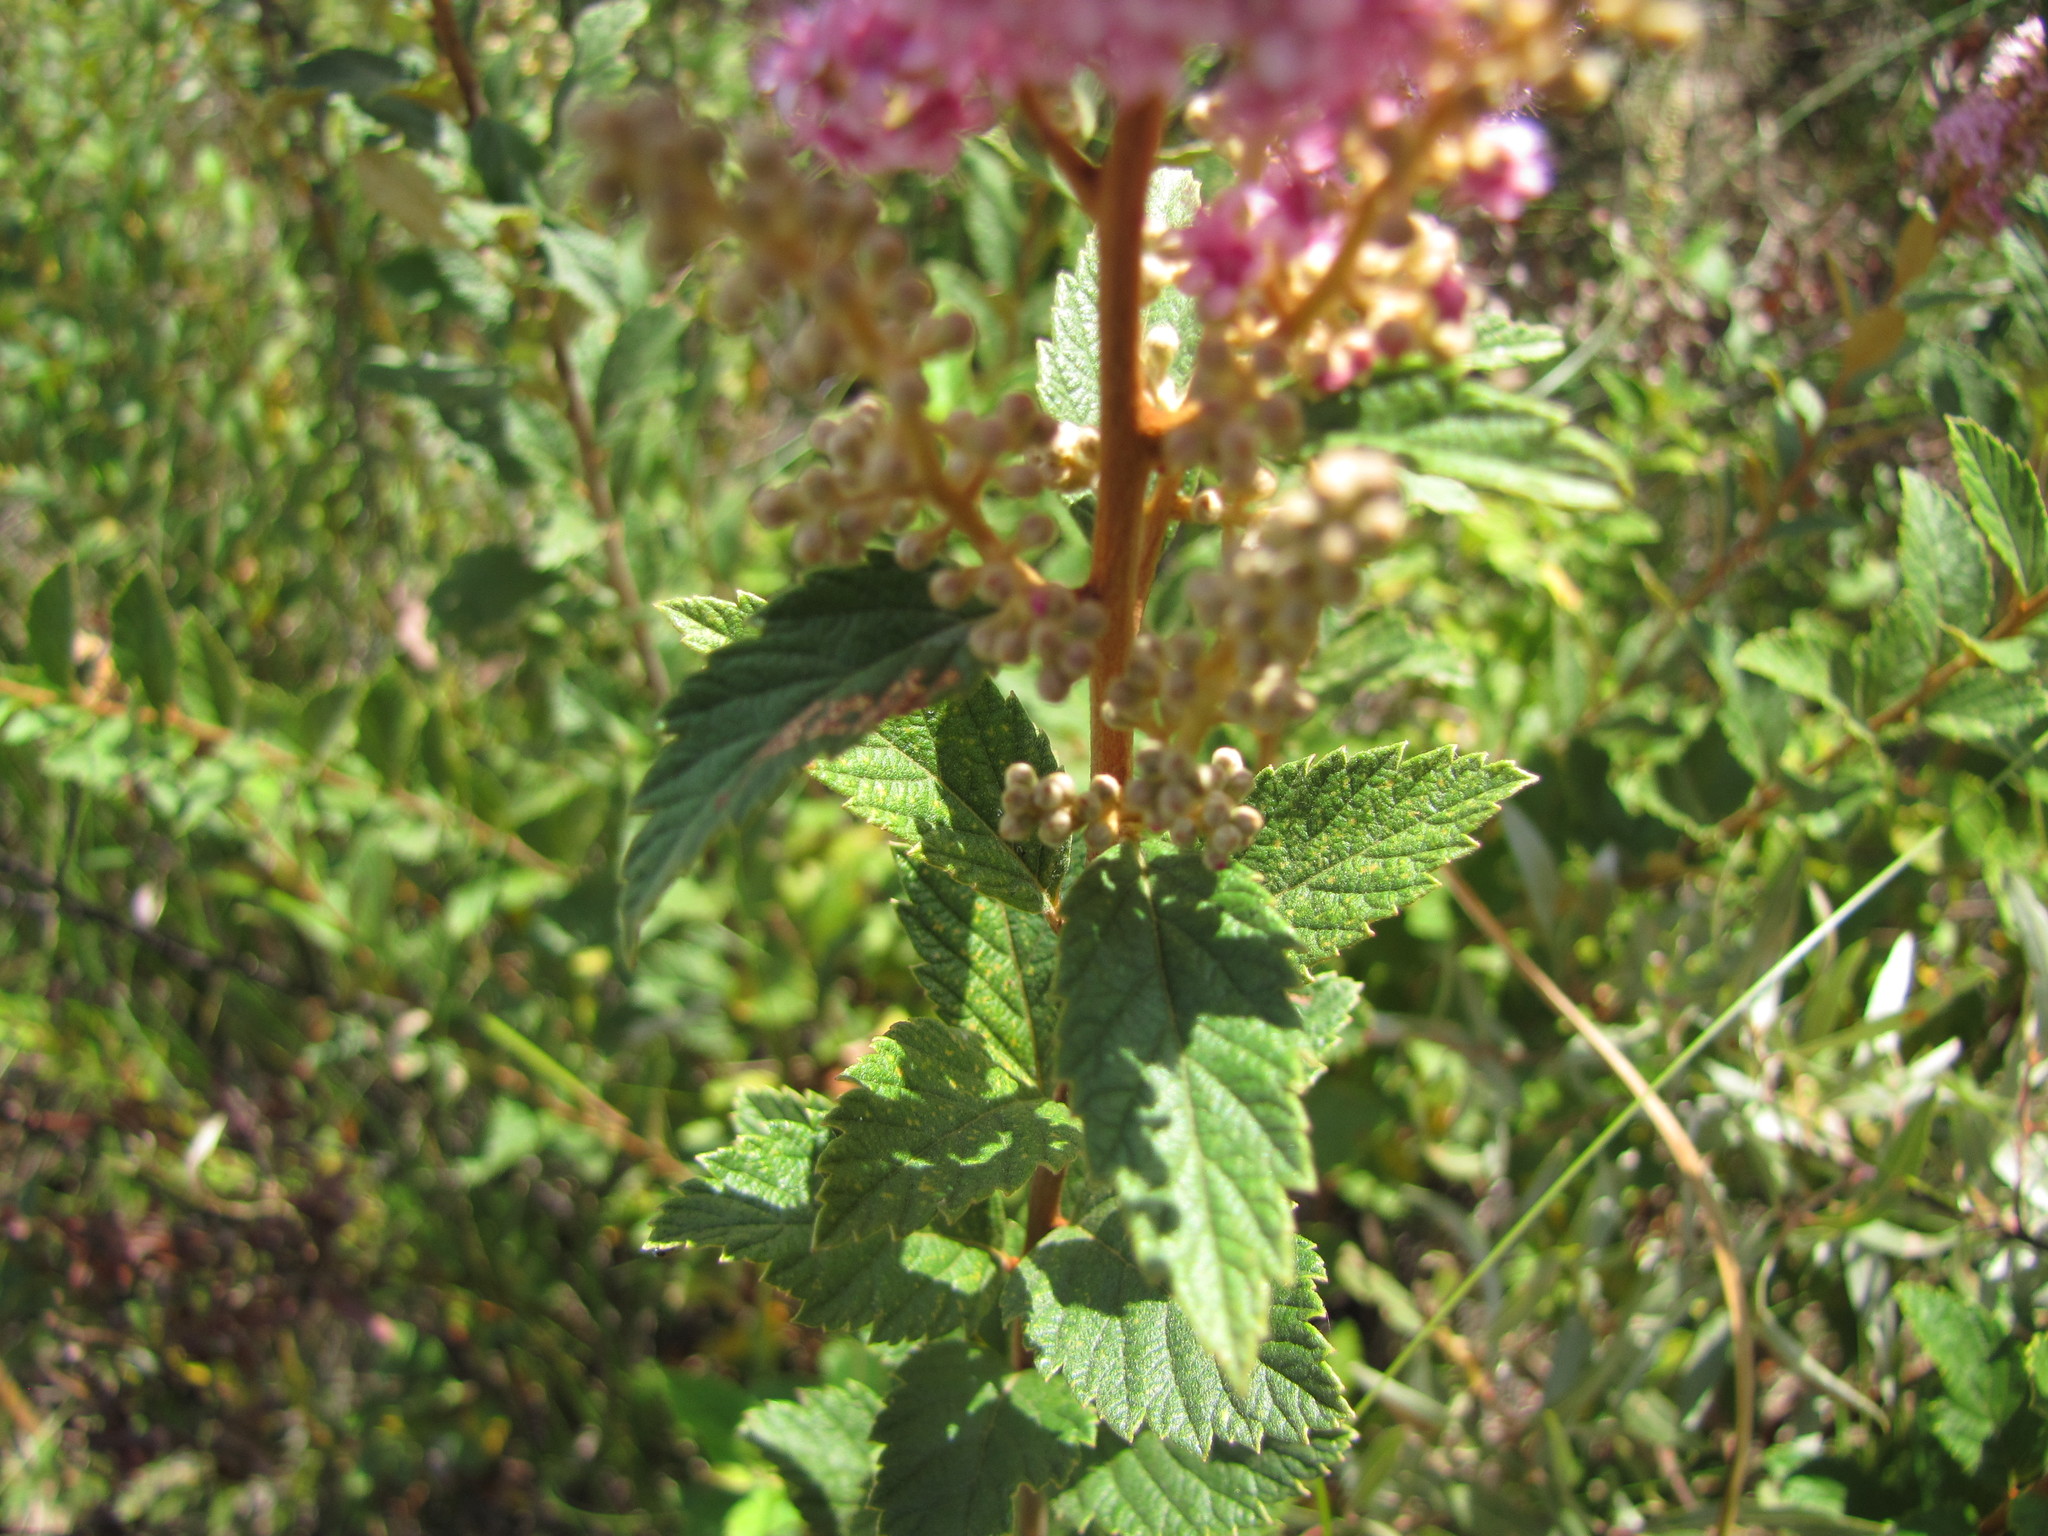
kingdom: Plantae
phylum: Tracheophyta
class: Magnoliopsida
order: Rosales
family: Rosaceae
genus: Spiraea
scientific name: Spiraea tomentosa
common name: Hardhack
